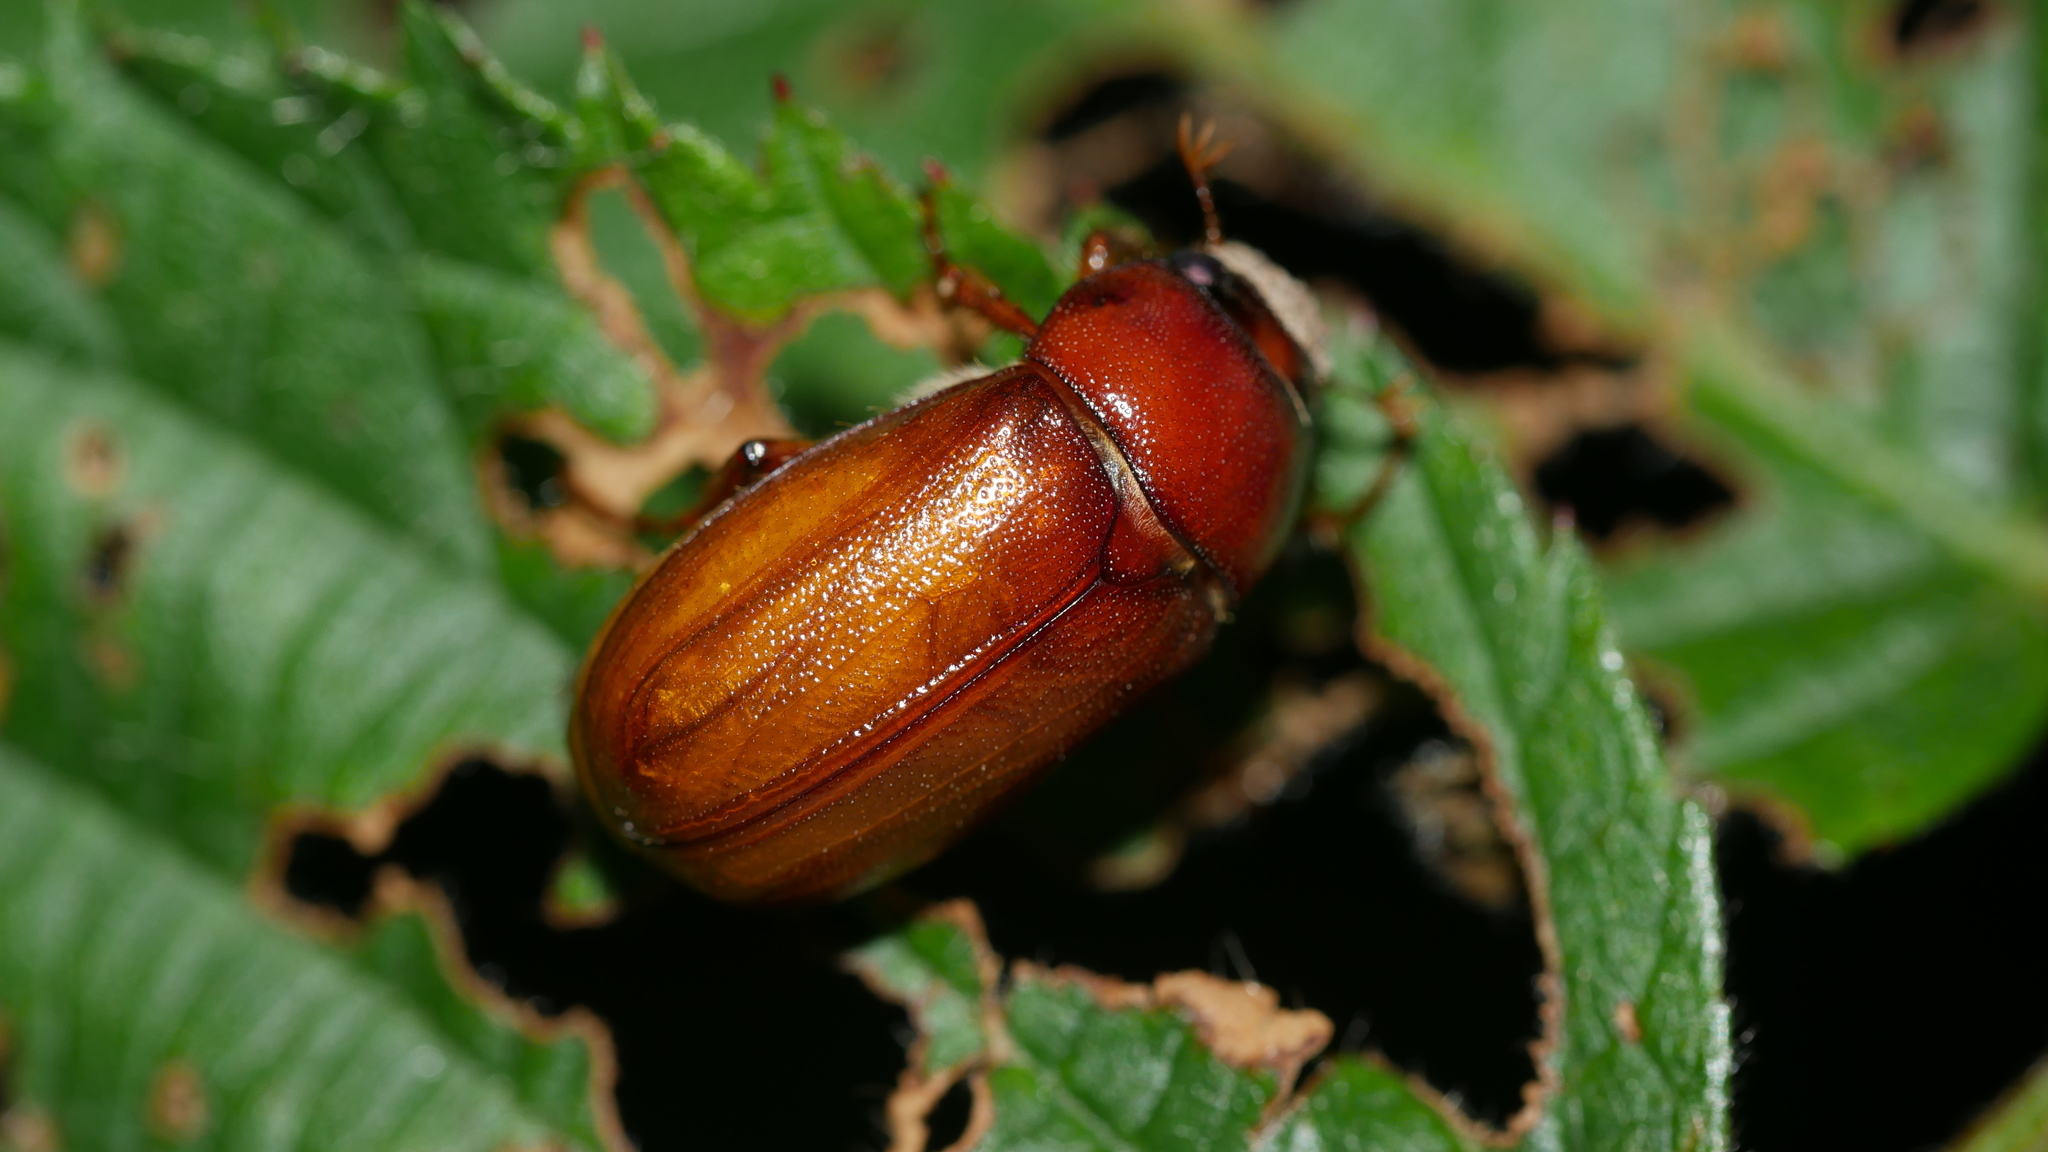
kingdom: Animalia
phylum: Arthropoda
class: Insecta
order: Coleoptera
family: Scarabaeidae
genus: Phyllophaga
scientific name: Phyllophaga
